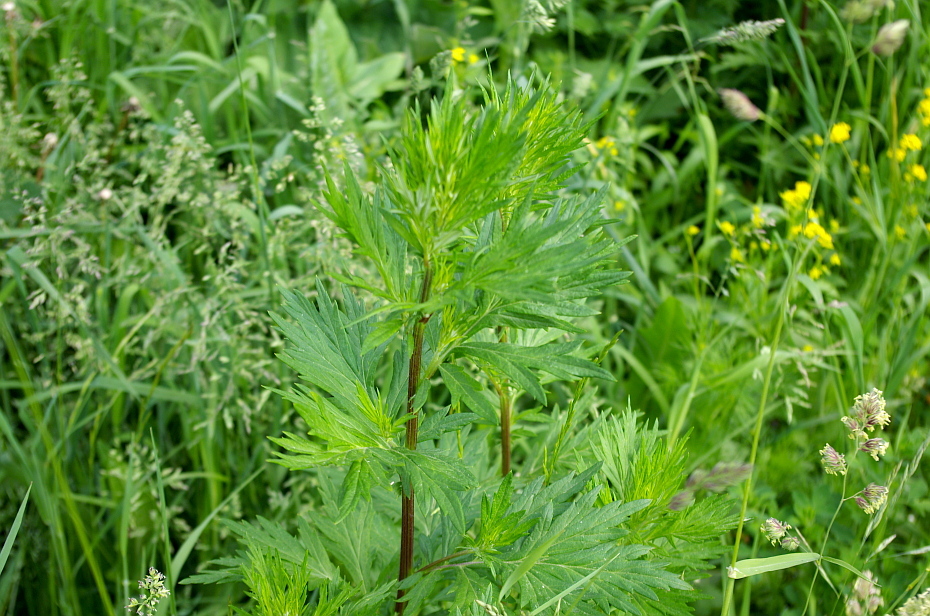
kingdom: Plantae
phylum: Tracheophyta
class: Magnoliopsida
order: Asterales
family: Asteraceae
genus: Artemisia
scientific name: Artemisia vulgaris
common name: Mugwort
